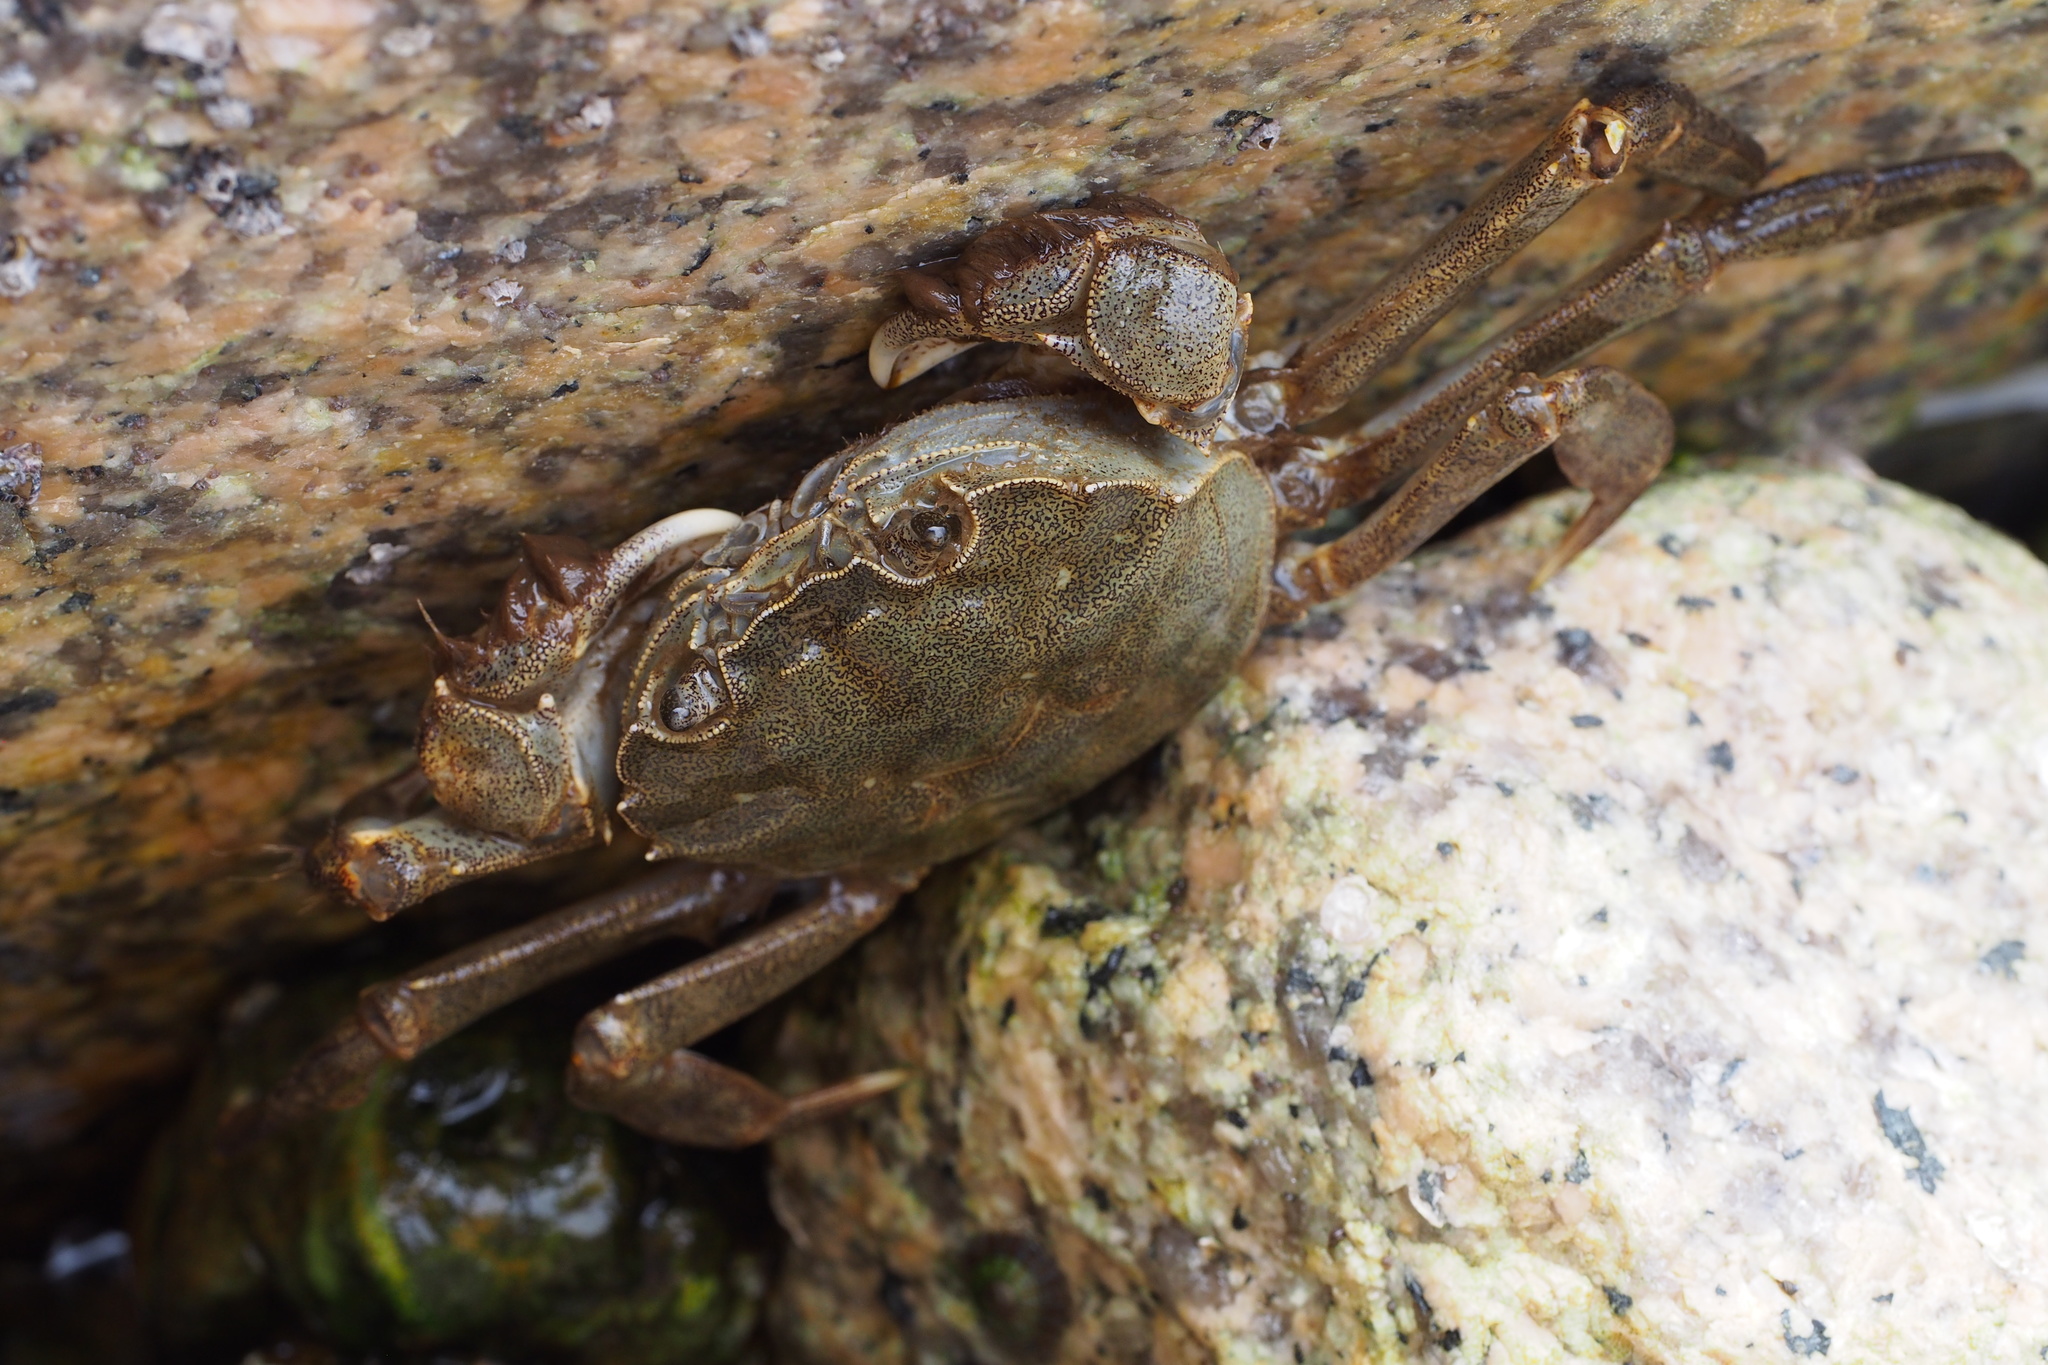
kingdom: Animalia
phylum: Arthropoda
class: Malacostraca
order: Decapoda
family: Varunidae
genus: Eriocheir
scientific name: Eriocheir japonica
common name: Japanese mitten crab
